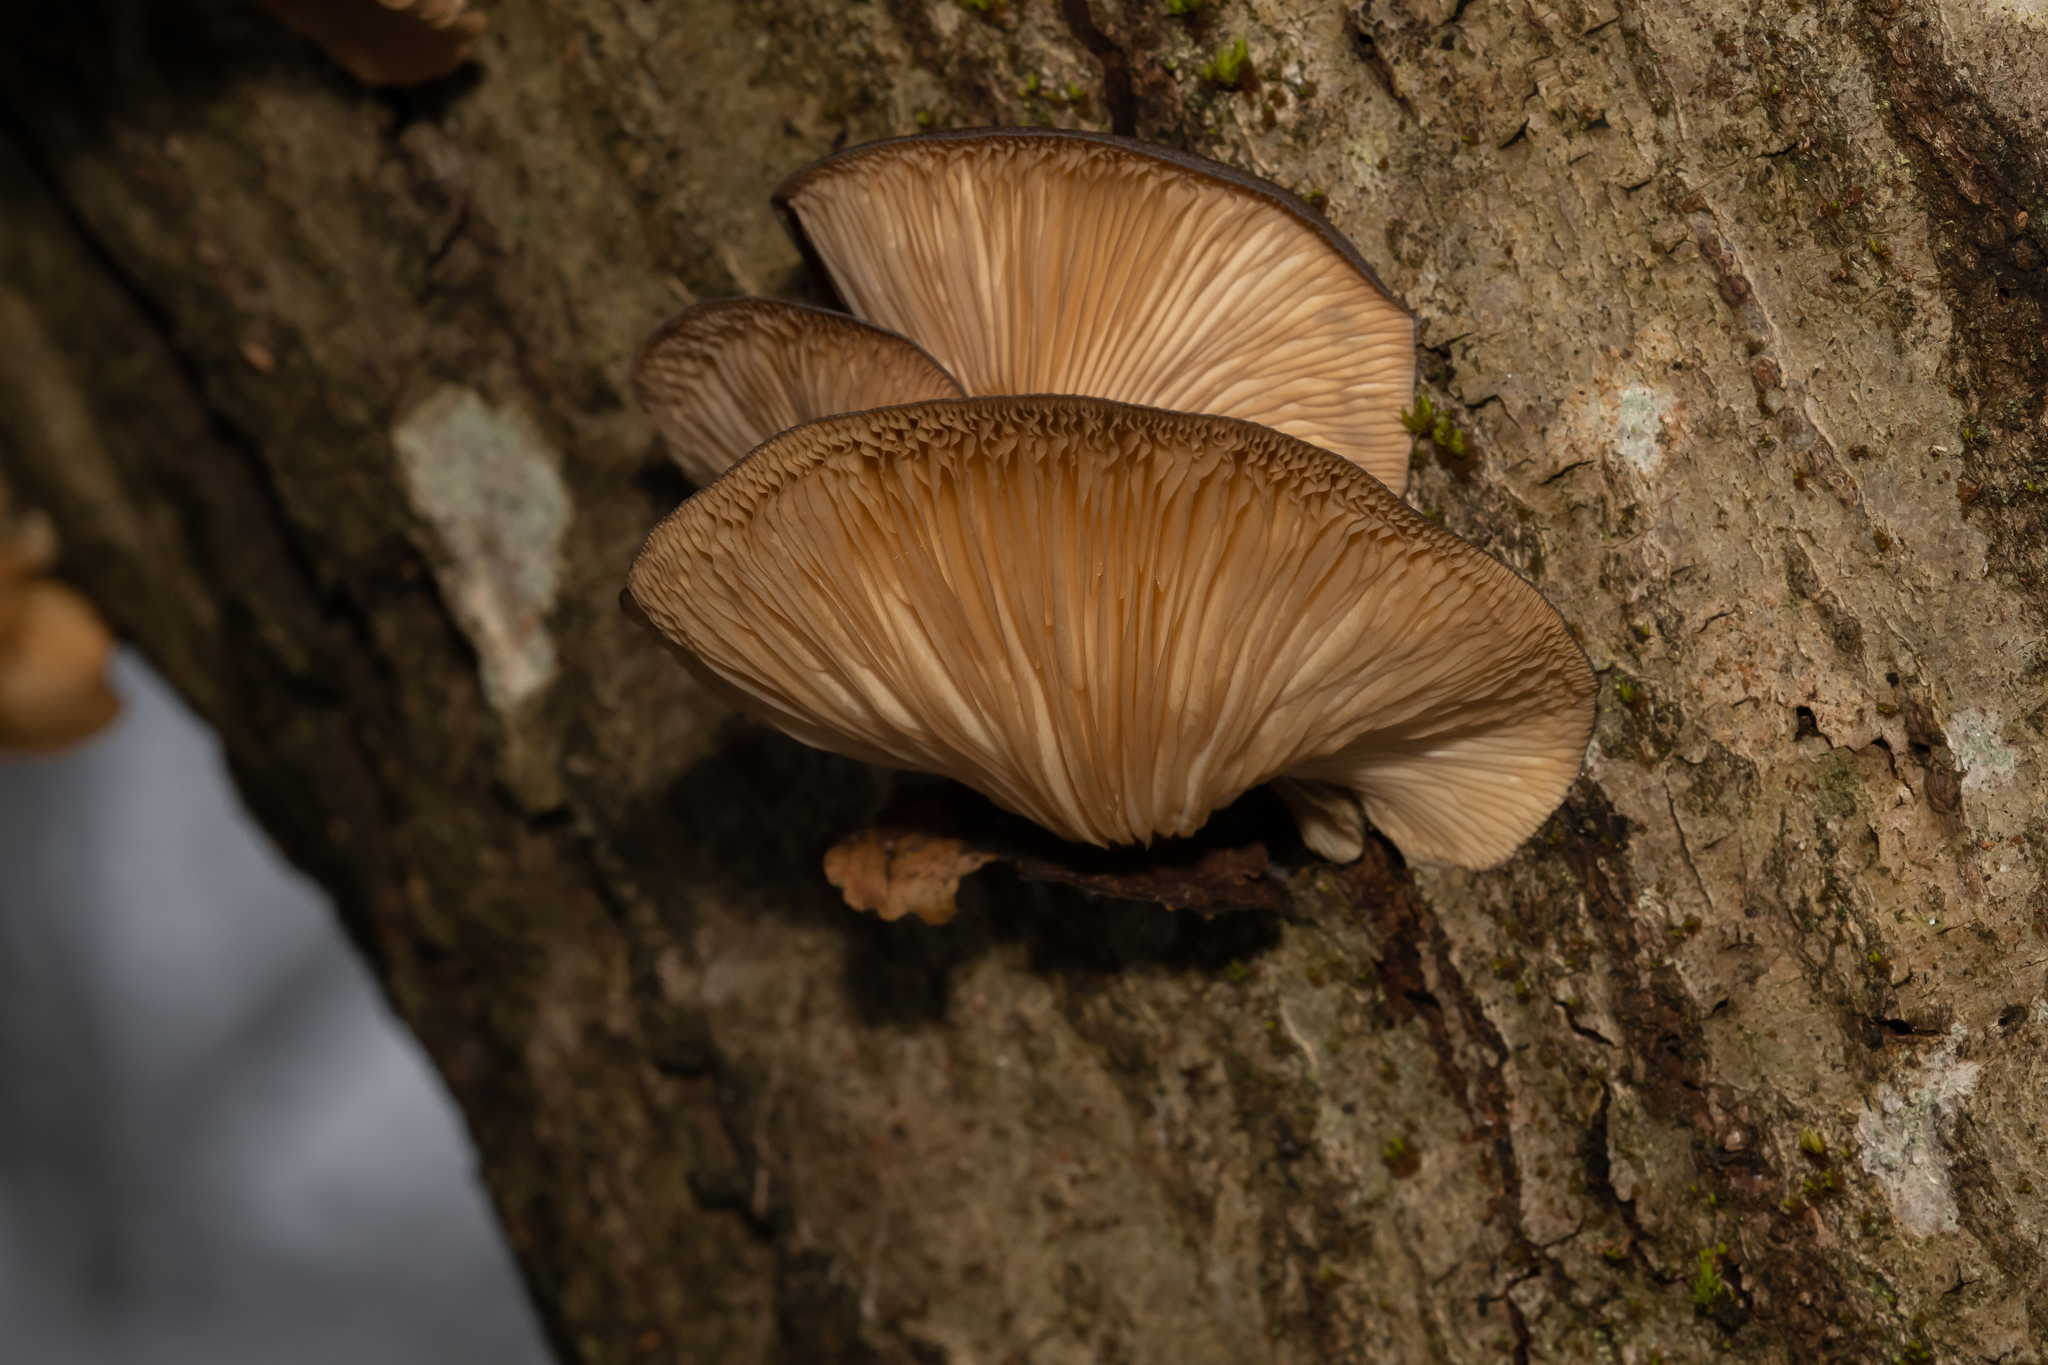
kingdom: Fungi
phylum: Basidiomycota
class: Agaricomycetes
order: Agaricales
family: Pleurotaceae
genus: Pleurotus
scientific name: Pleurotus ostreatus
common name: Oyster mushroom
